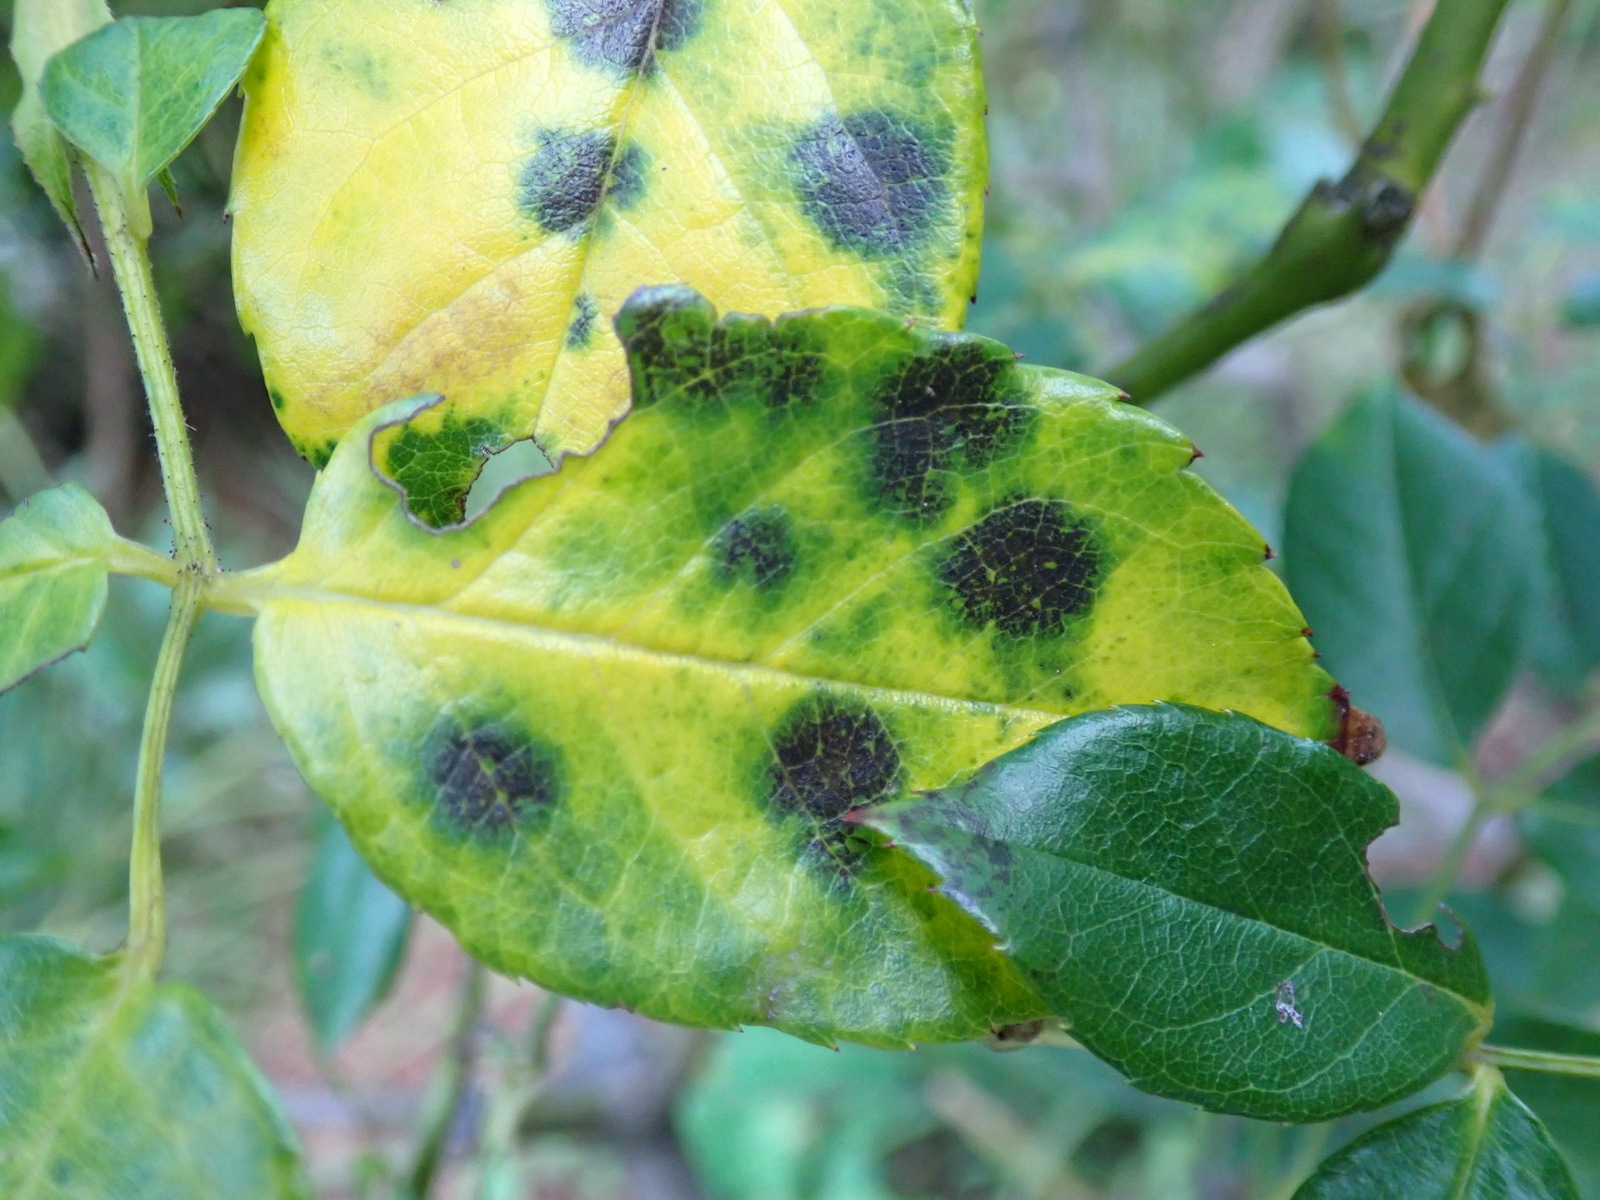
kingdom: Fungi
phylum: Ascomycota
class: Leotiomycetes
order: Helotiales
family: Drepanopezizaceae
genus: Diplocarpon
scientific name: Diplocarpon rosae
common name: Rose black-spot
